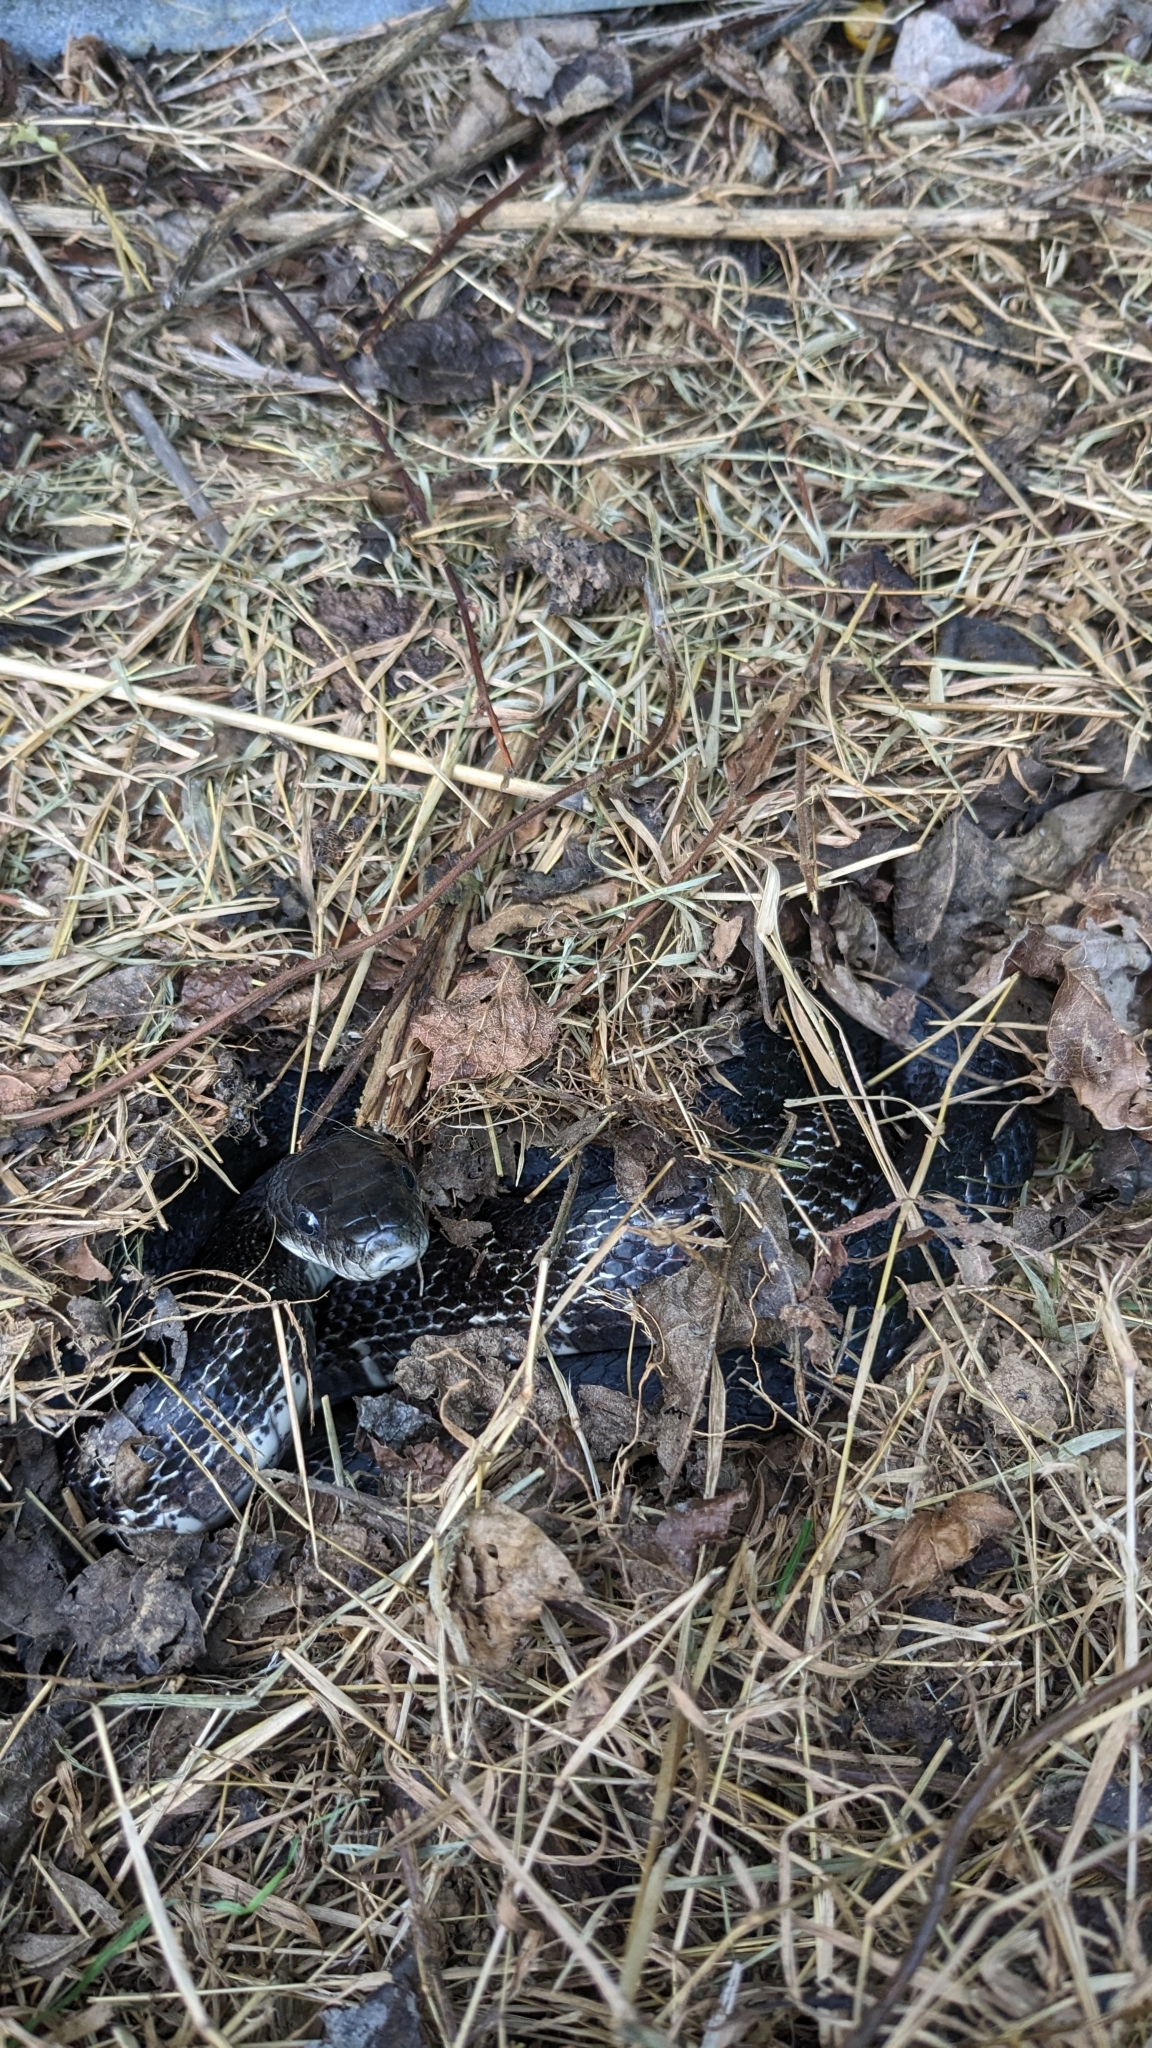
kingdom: Animalia
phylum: Chordata
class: Squamata
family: Colubridae
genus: Pantherophis
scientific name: Pantherophis spiloides
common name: Gray rat snake
